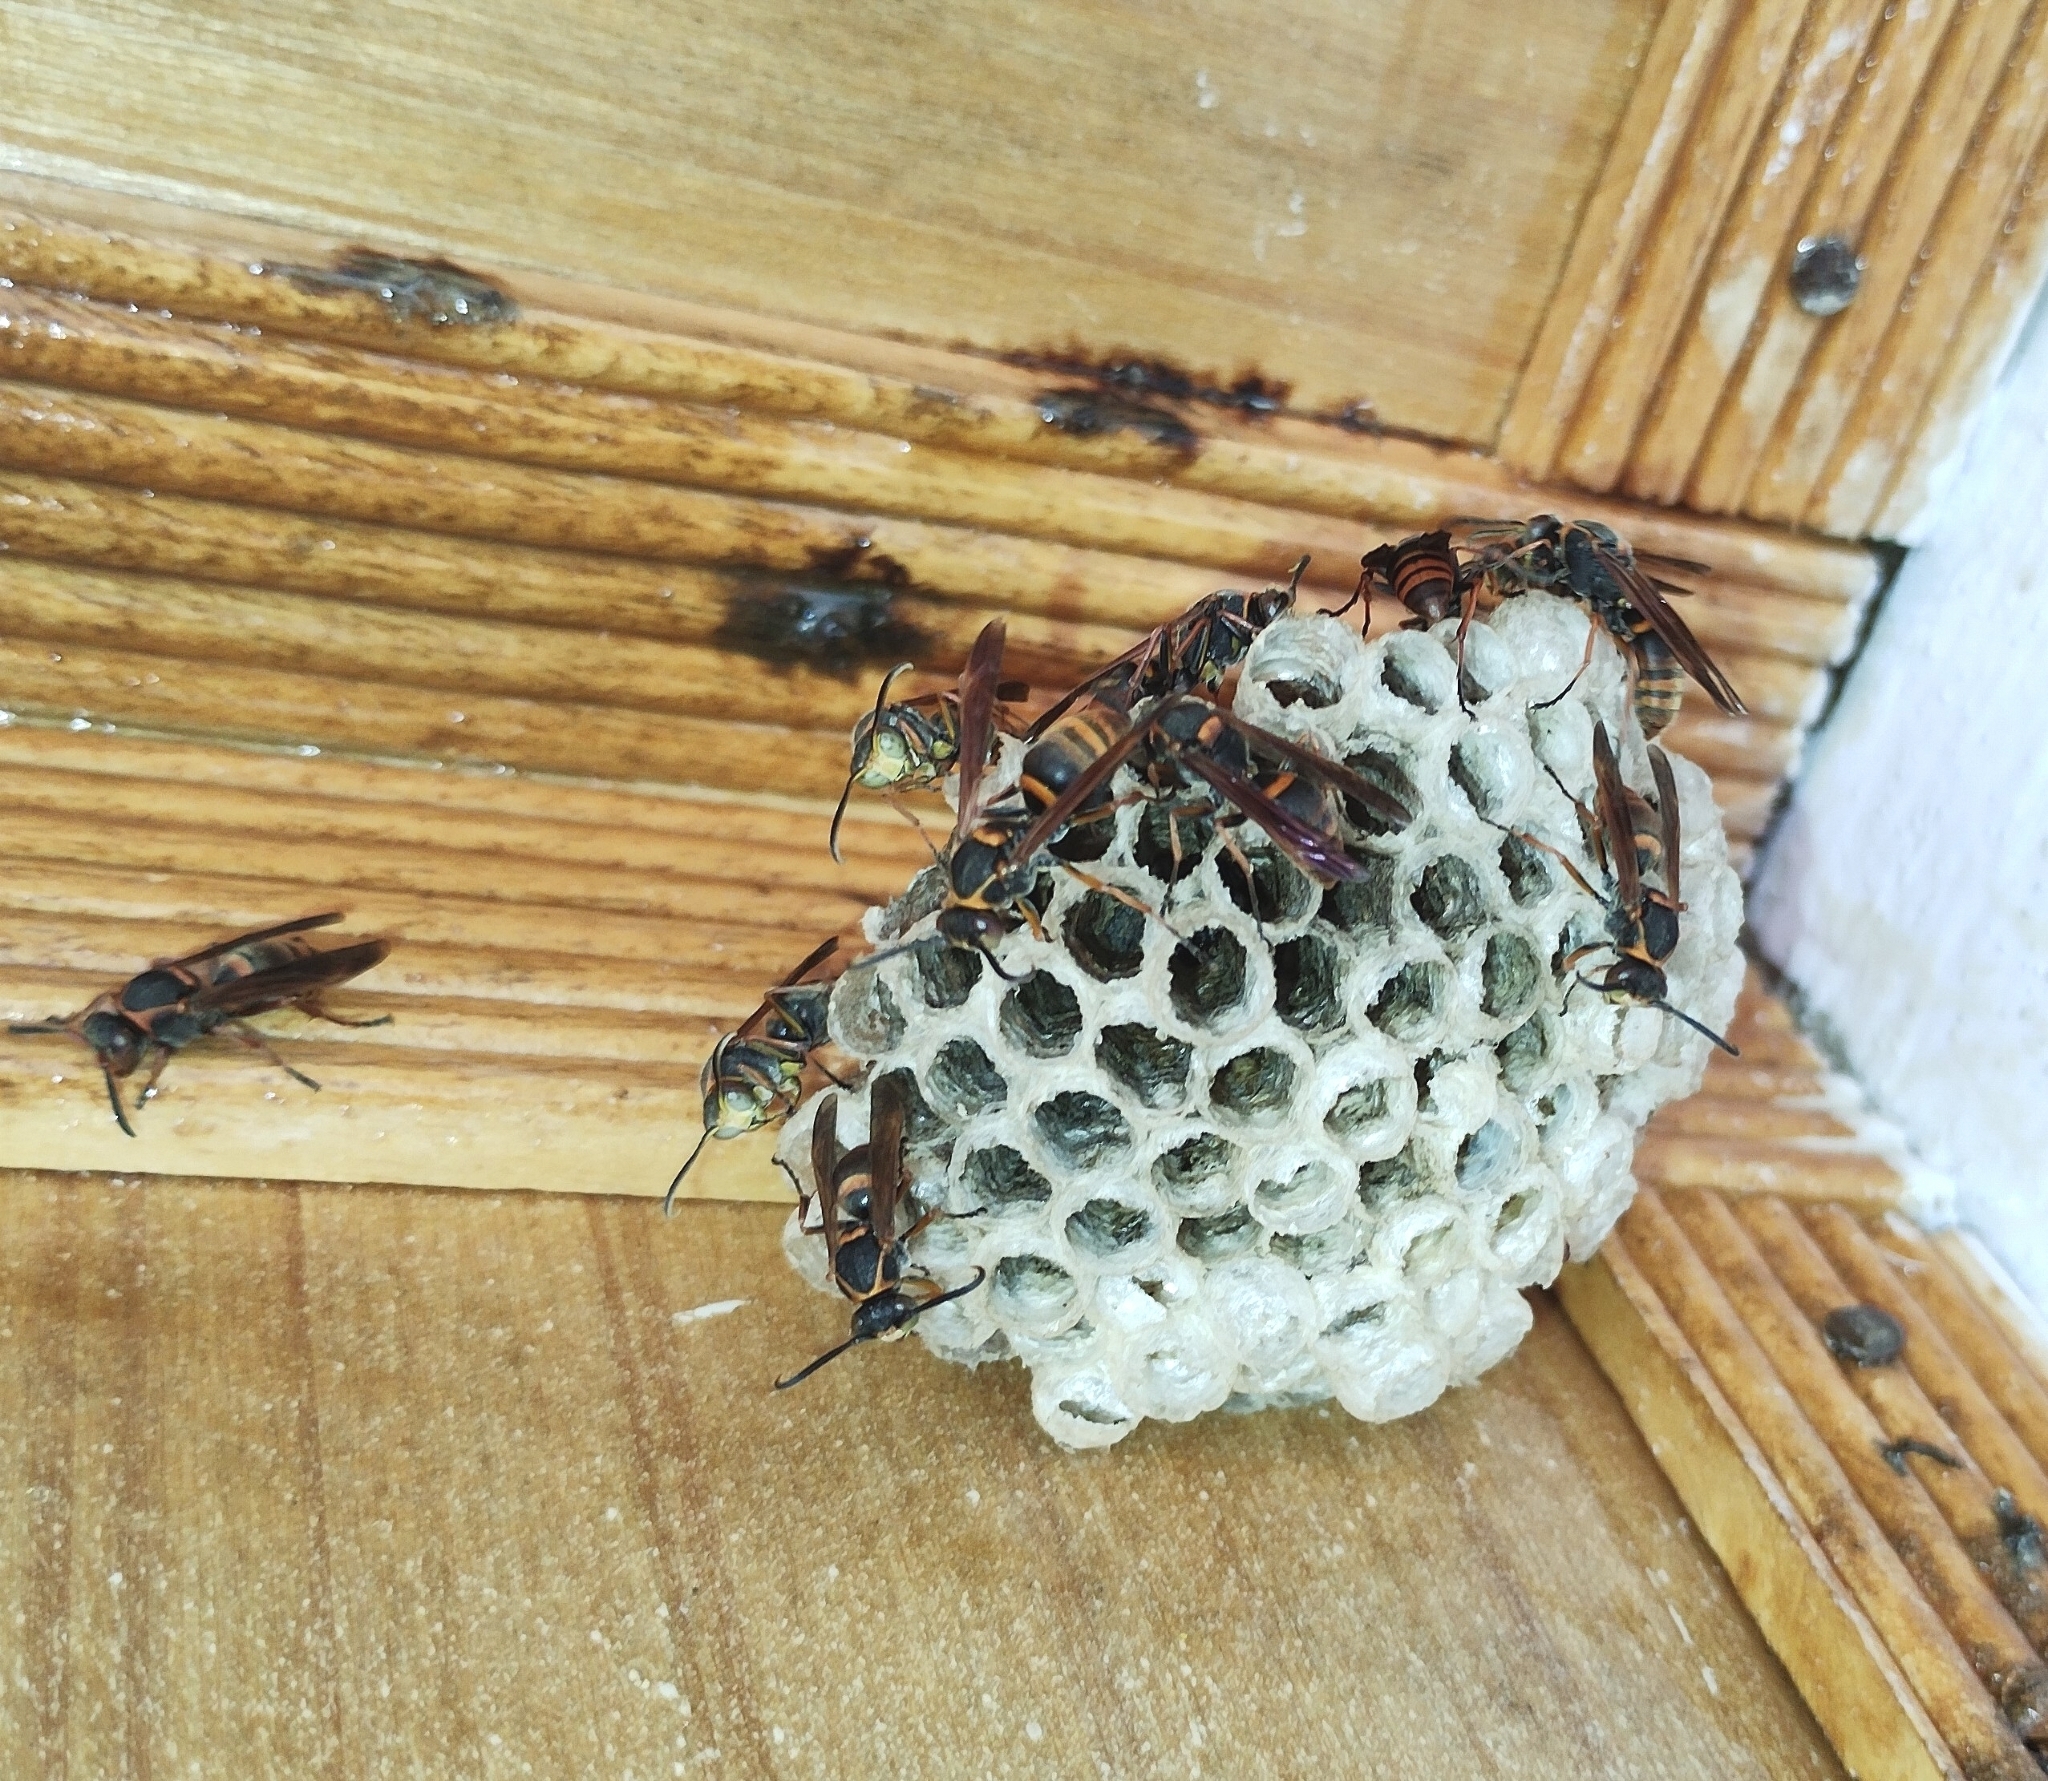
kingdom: Animalia
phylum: Arthropoda
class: Insecta
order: Hymenoptera
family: Eumenidae
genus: Polistes
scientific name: Polistes adustus
